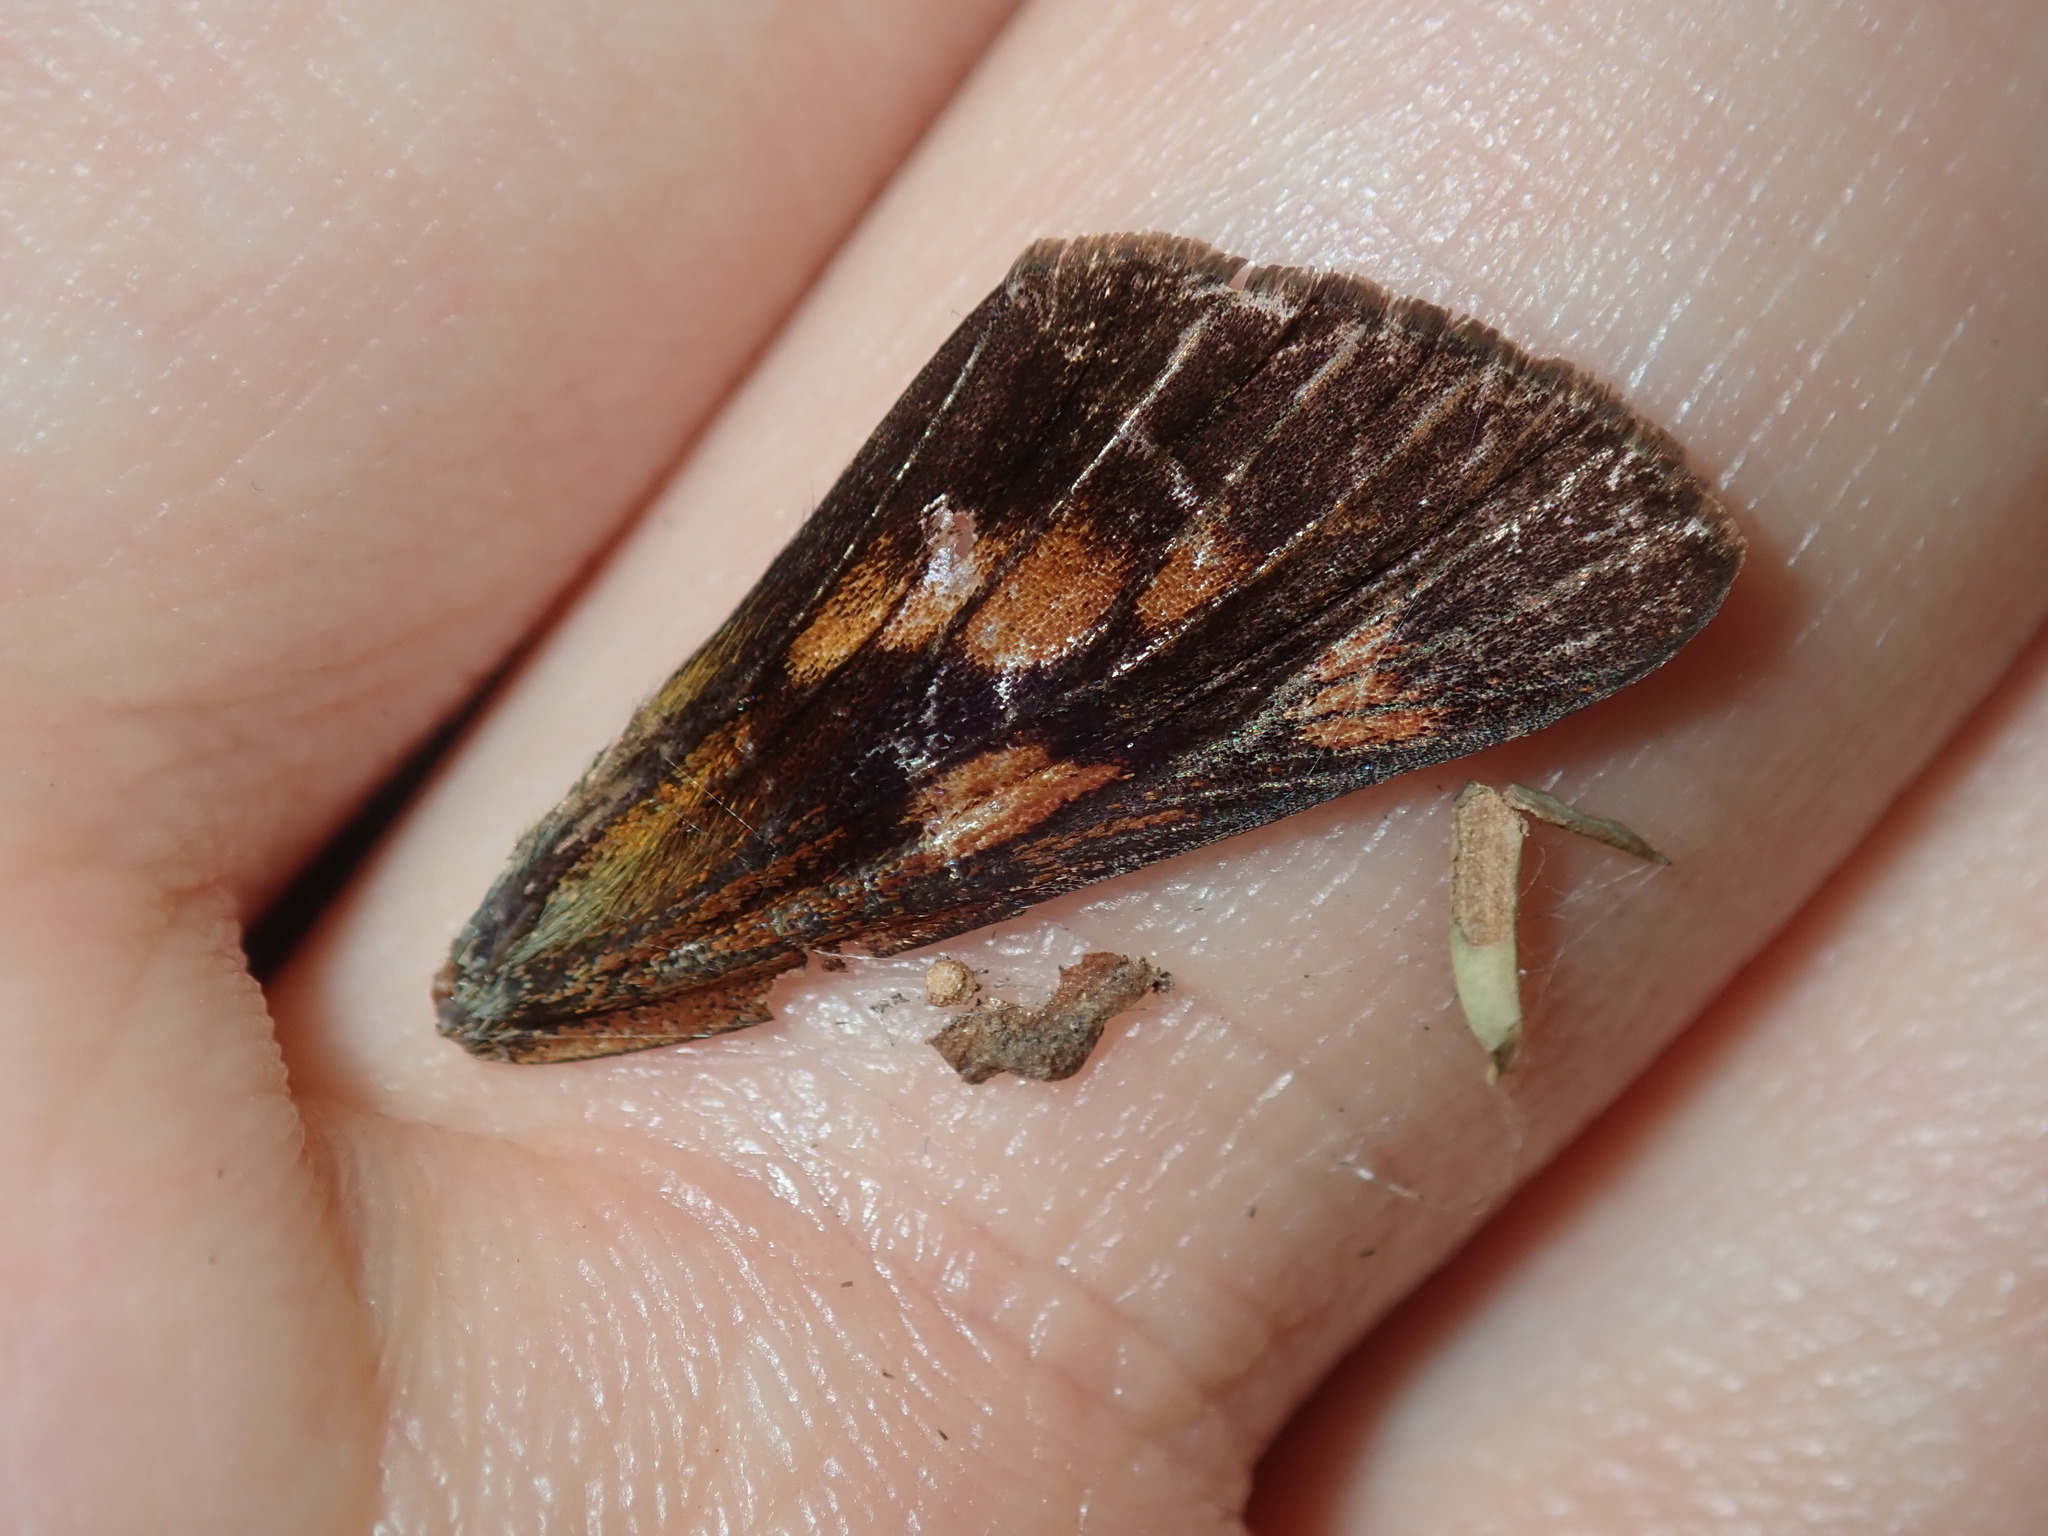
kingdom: Animalia
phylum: Arthropoda
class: Insecta
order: Lepidoptera
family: Hesperiidae
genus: Cephrenes
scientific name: Cephrenes augiades
